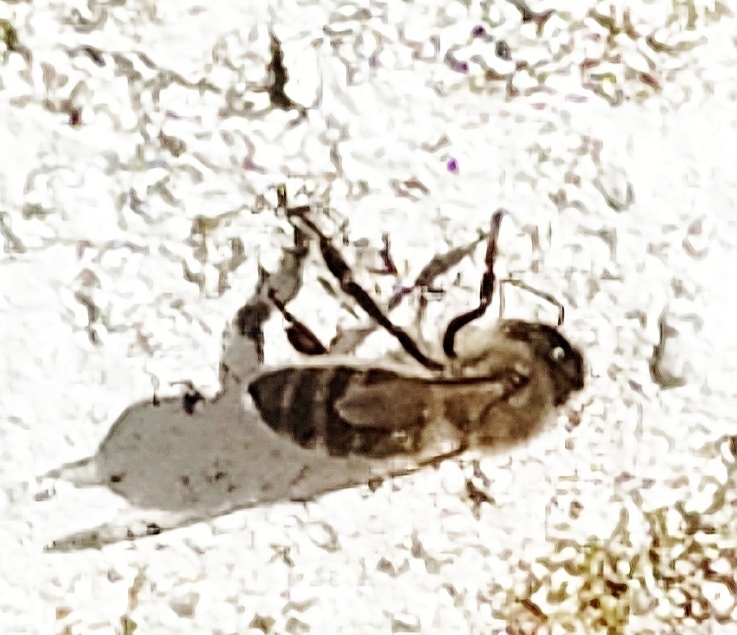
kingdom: Animalia
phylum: Arthropoda
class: Insecta
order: Hymenoptera
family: Apidae
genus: Apis
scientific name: Apis mellifera
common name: Honey bee
